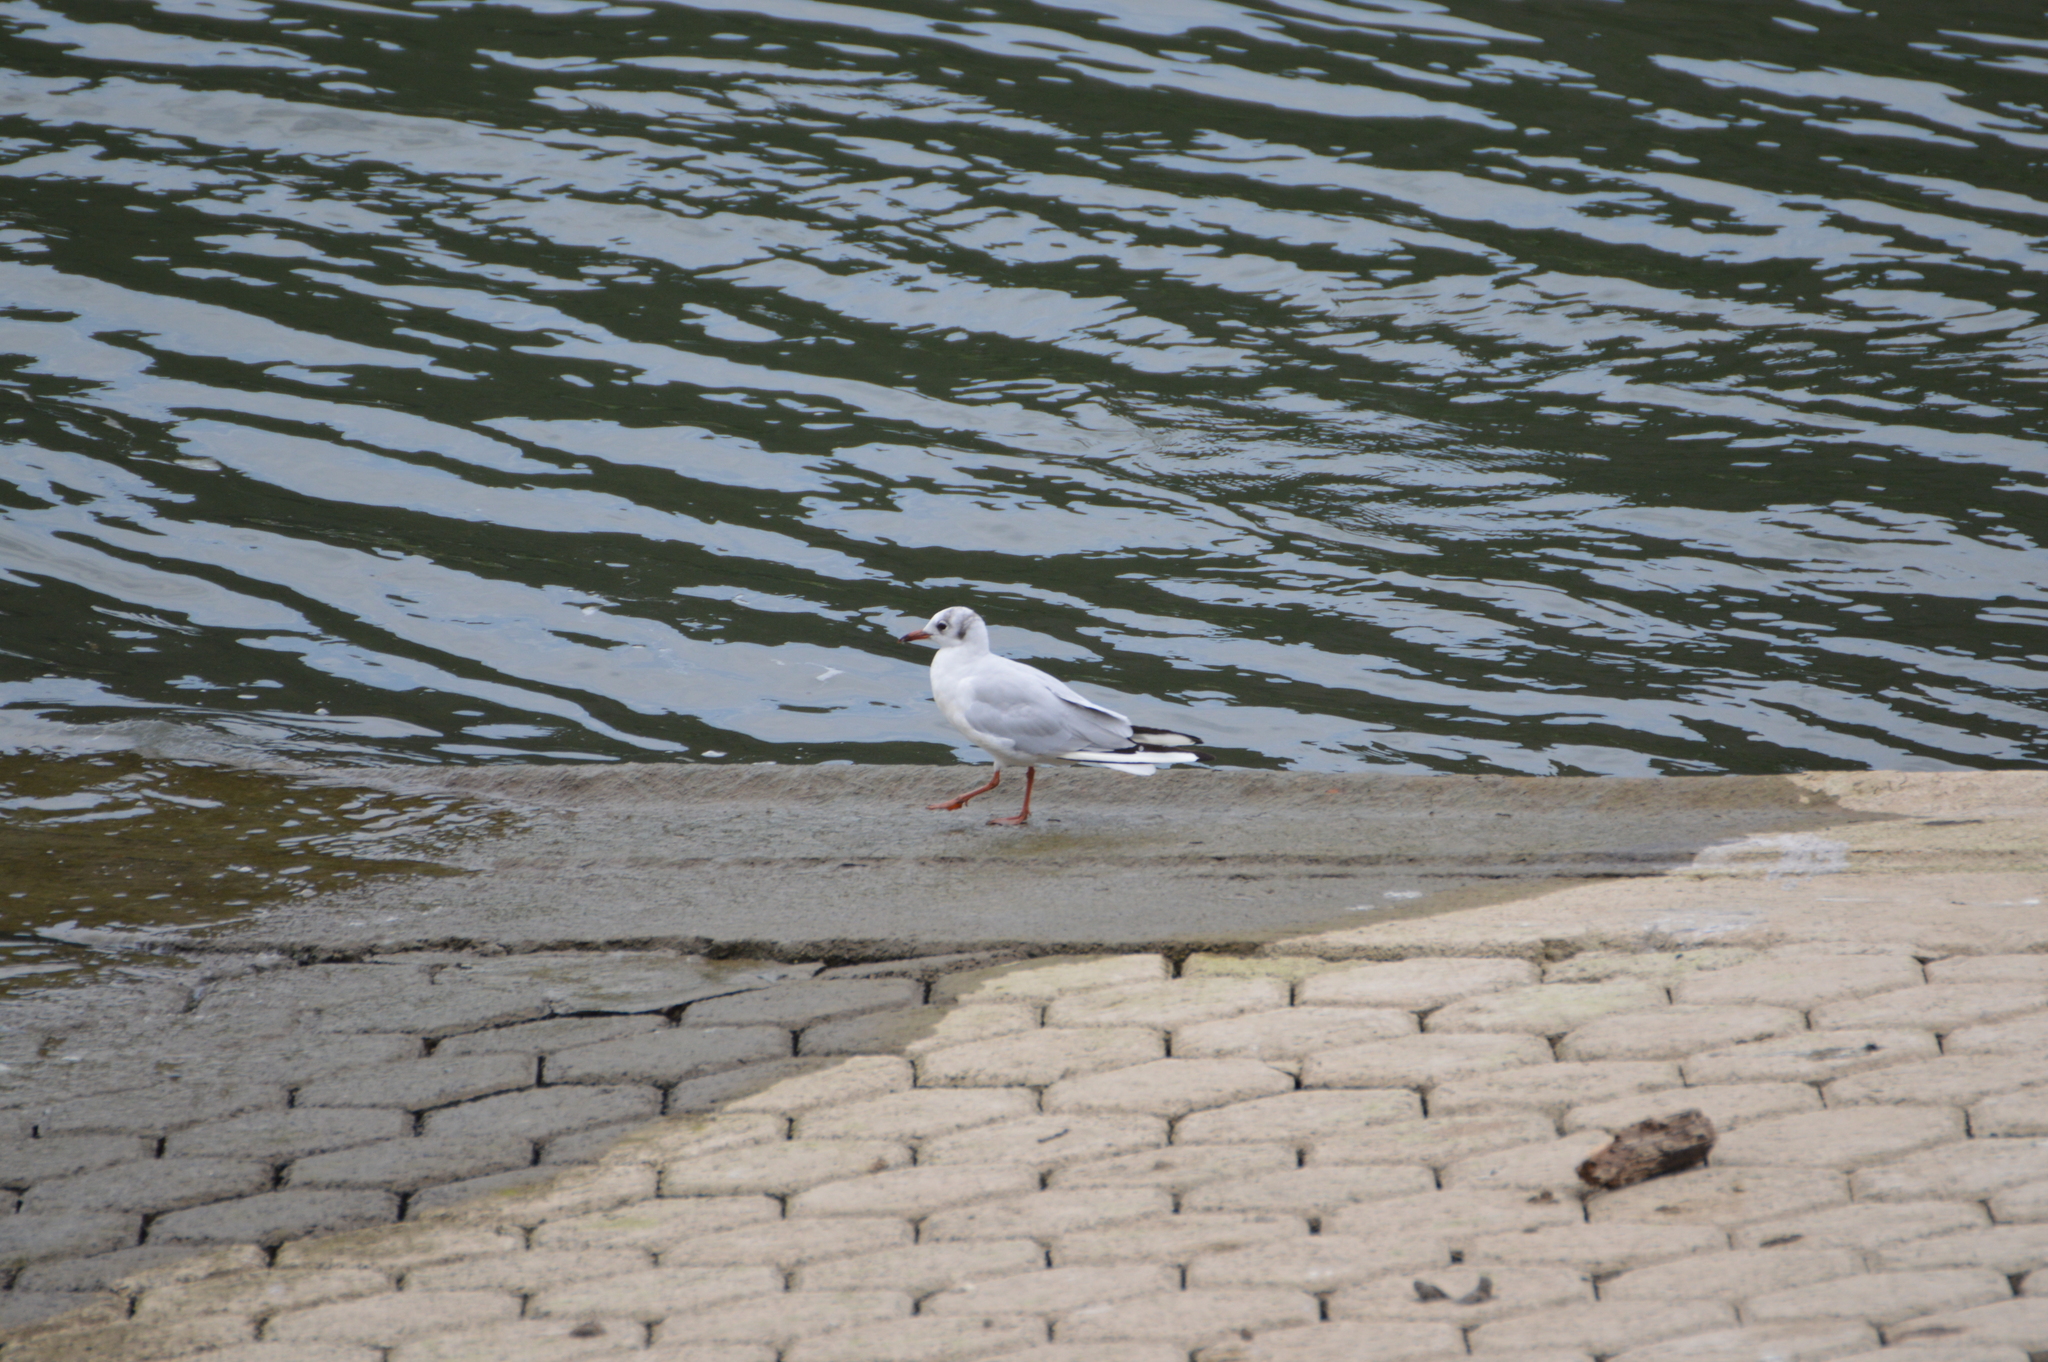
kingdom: Animalia
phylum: Chordata
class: Aves
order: Charadriiformes
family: Laridae
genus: Chroicocephalus
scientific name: Chroicocephalus ridibundus
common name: Black-headed gull
